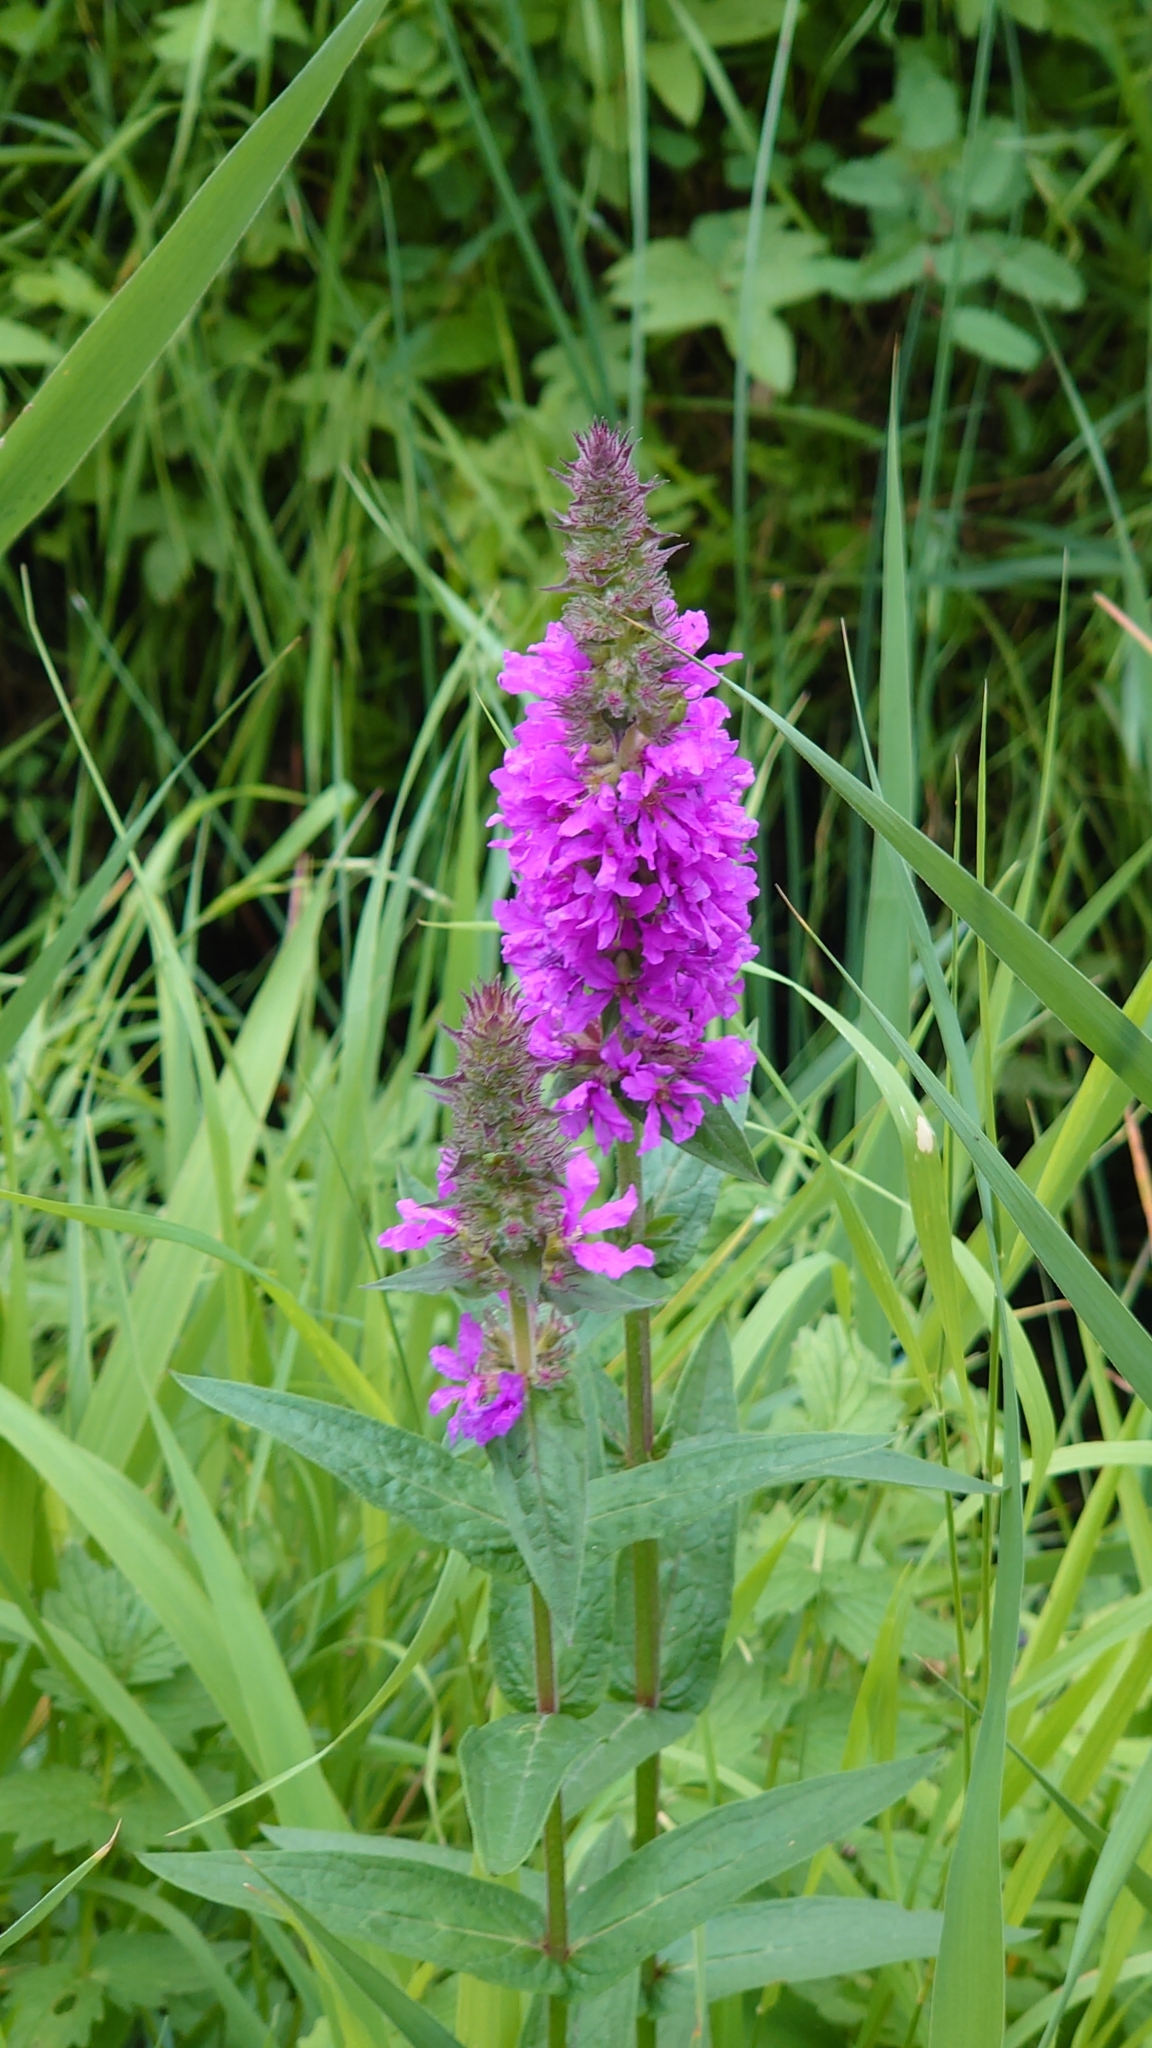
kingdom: Plantae
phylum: Tracheophyta
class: Magnoliopsida
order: Myrtales
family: Lythraceae
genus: Lythrum
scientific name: Lythrum salicaria
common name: Purple loosestrife
